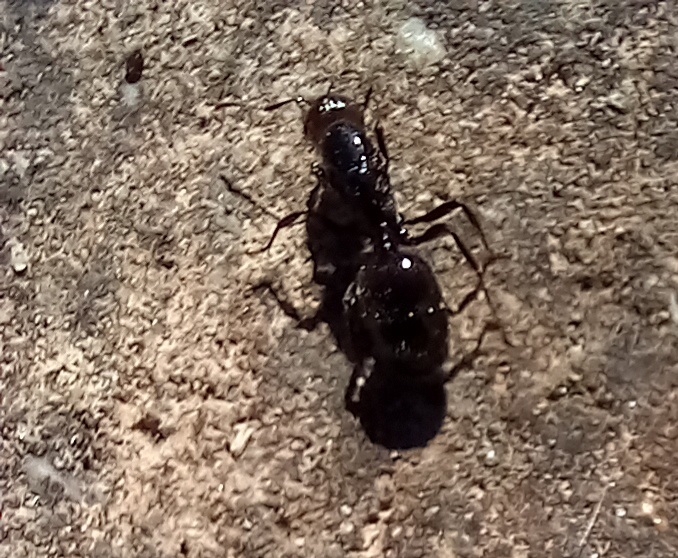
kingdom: Animalia
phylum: Arthropoda
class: Insecta
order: Hymenoptera
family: Formicidae
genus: Messor
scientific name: Messor barbarus
